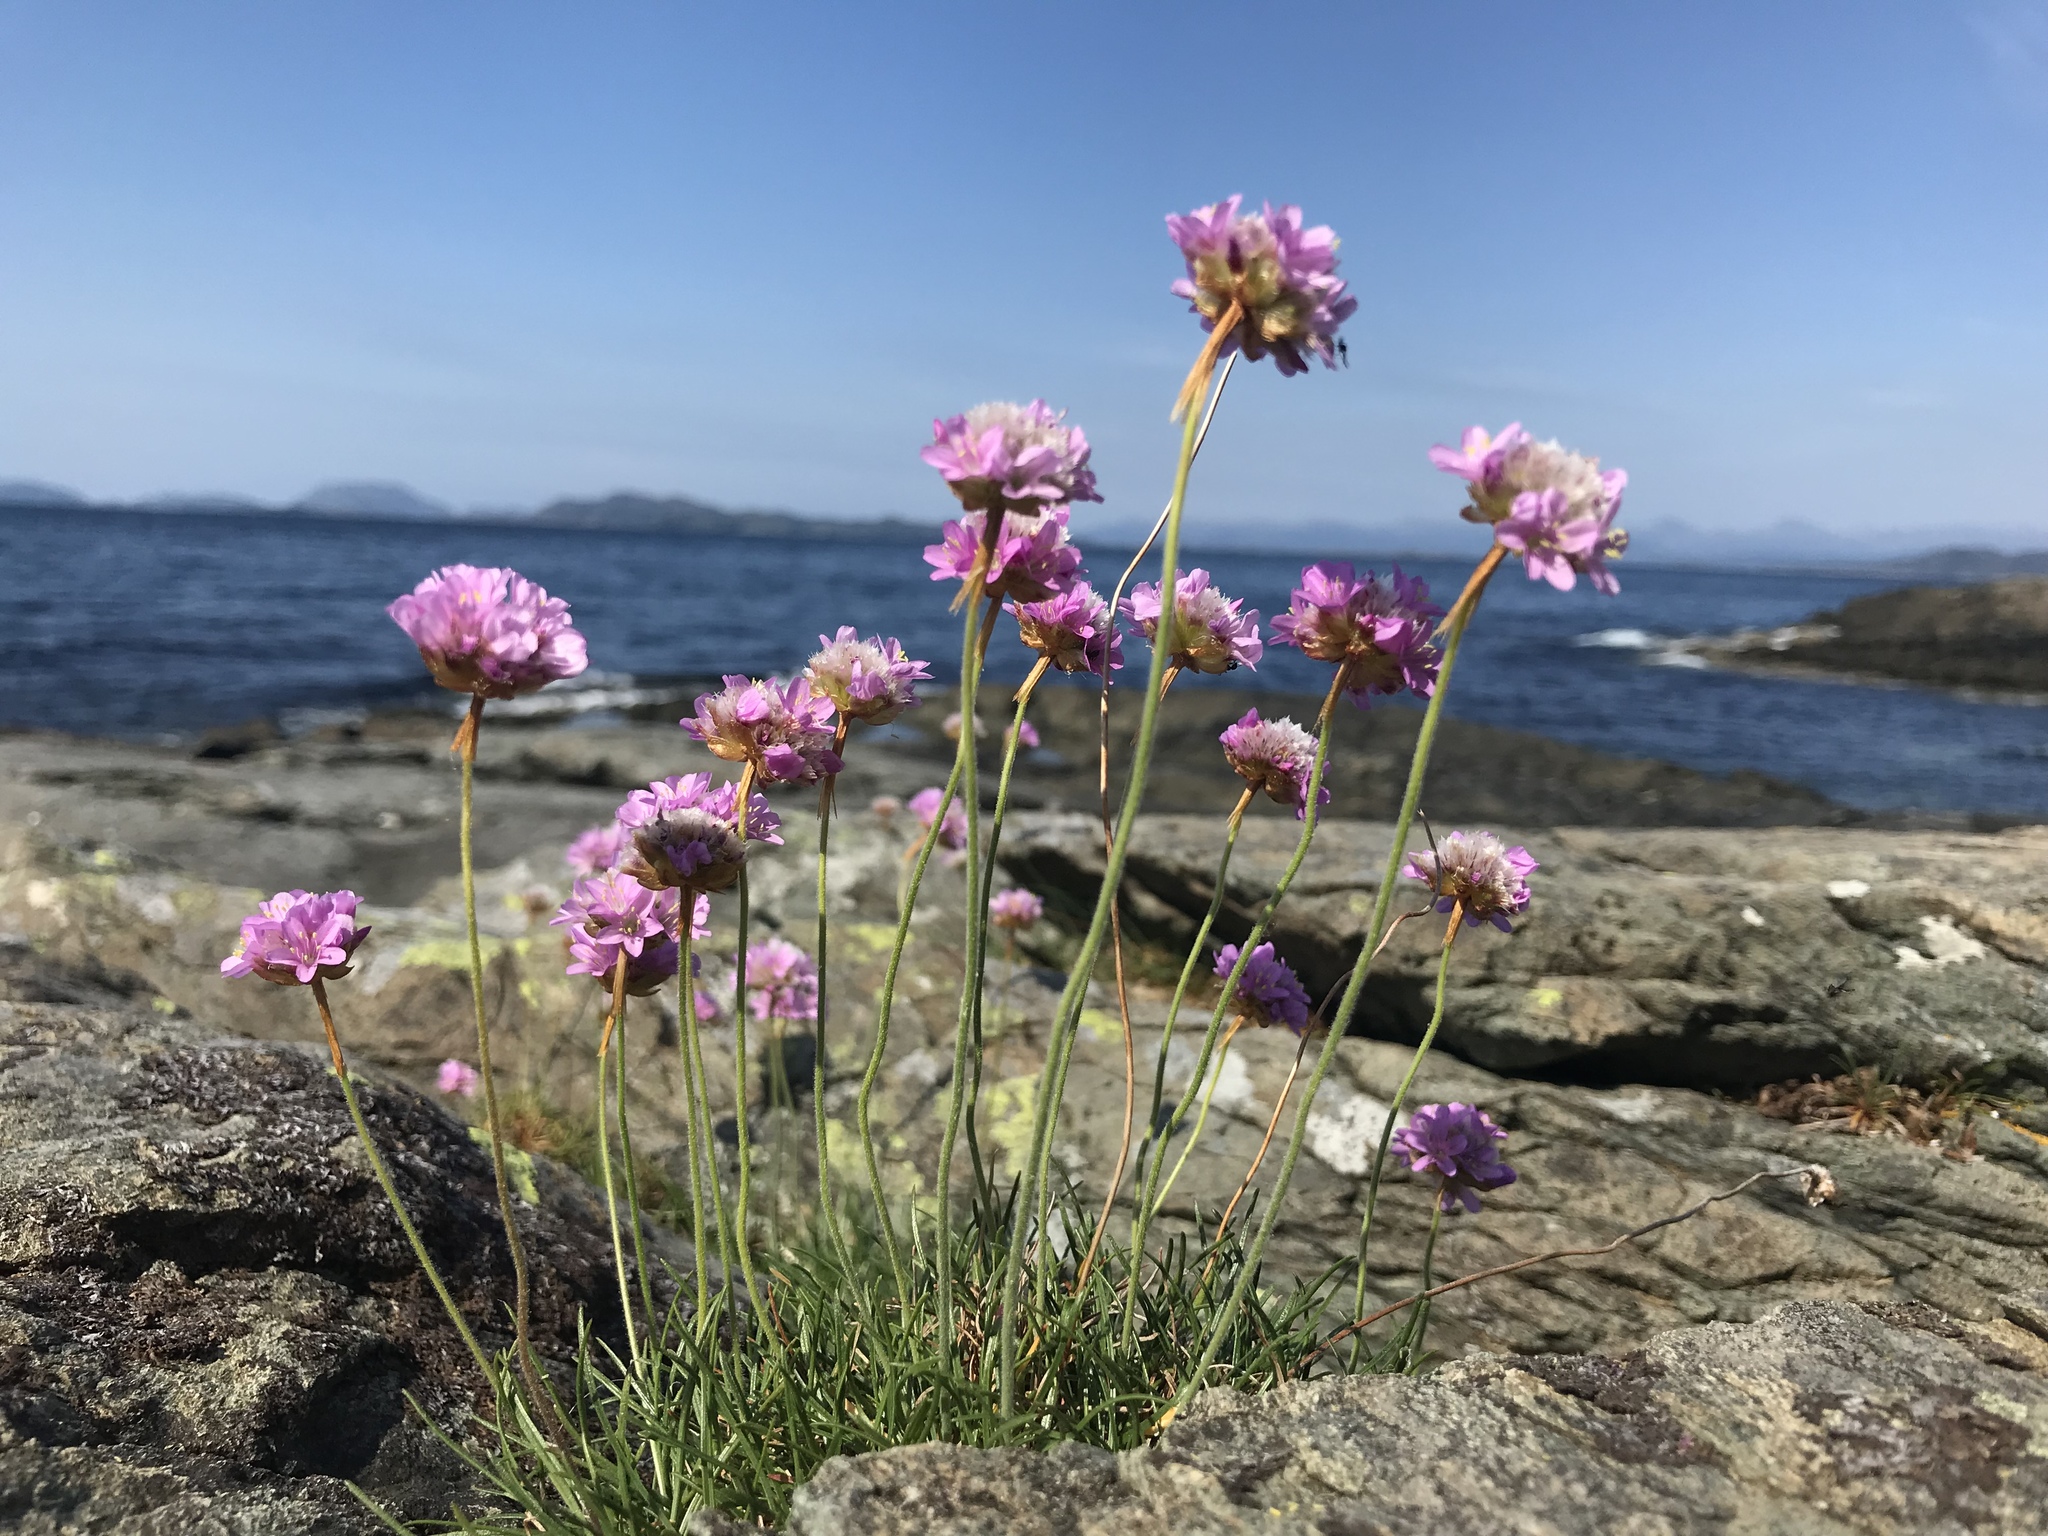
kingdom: Plantae
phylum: Tracheophyta
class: Magnoliopsida
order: Caryophyllales
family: Plumbaginaceae
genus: Armeria
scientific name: Armeria maritima
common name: Thrift
